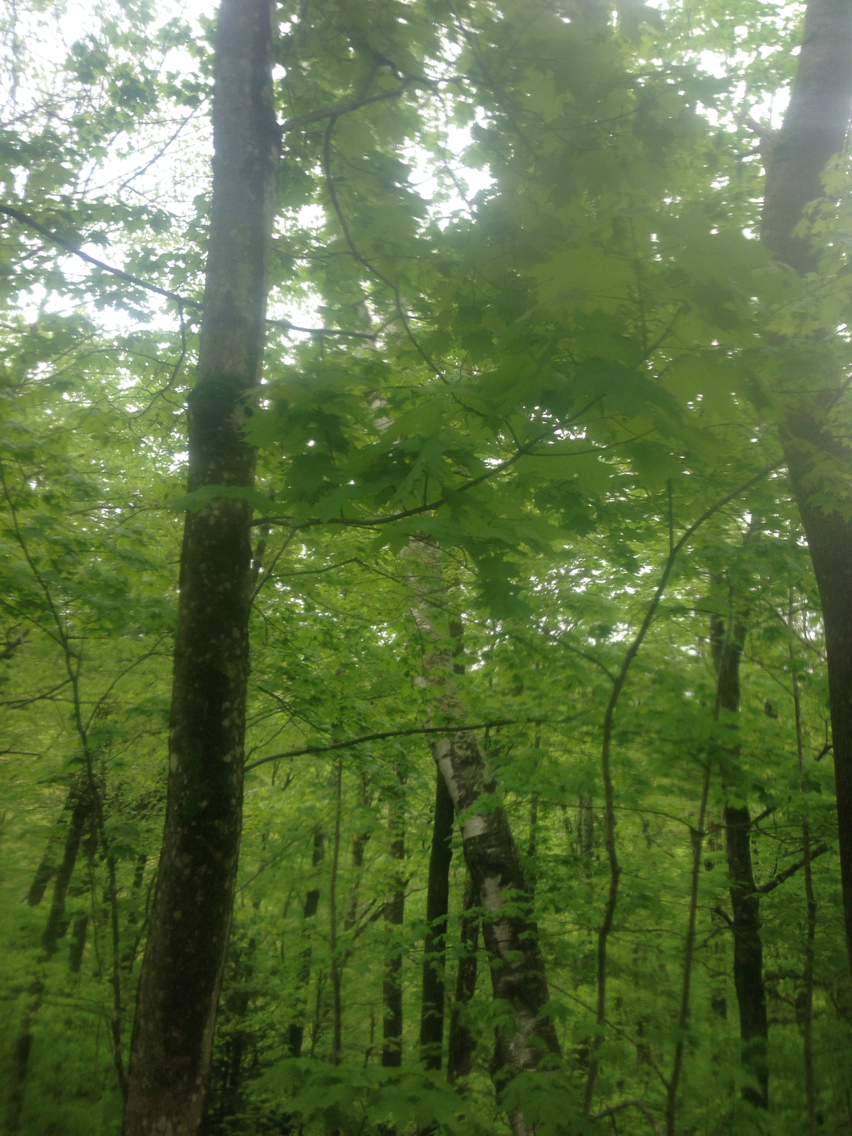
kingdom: Plantae
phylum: Tracheophyta
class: Magnoliopsida
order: Sapindales
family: Sapindaceae
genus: Acer
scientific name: Acer saccharum
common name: Sugar maple
